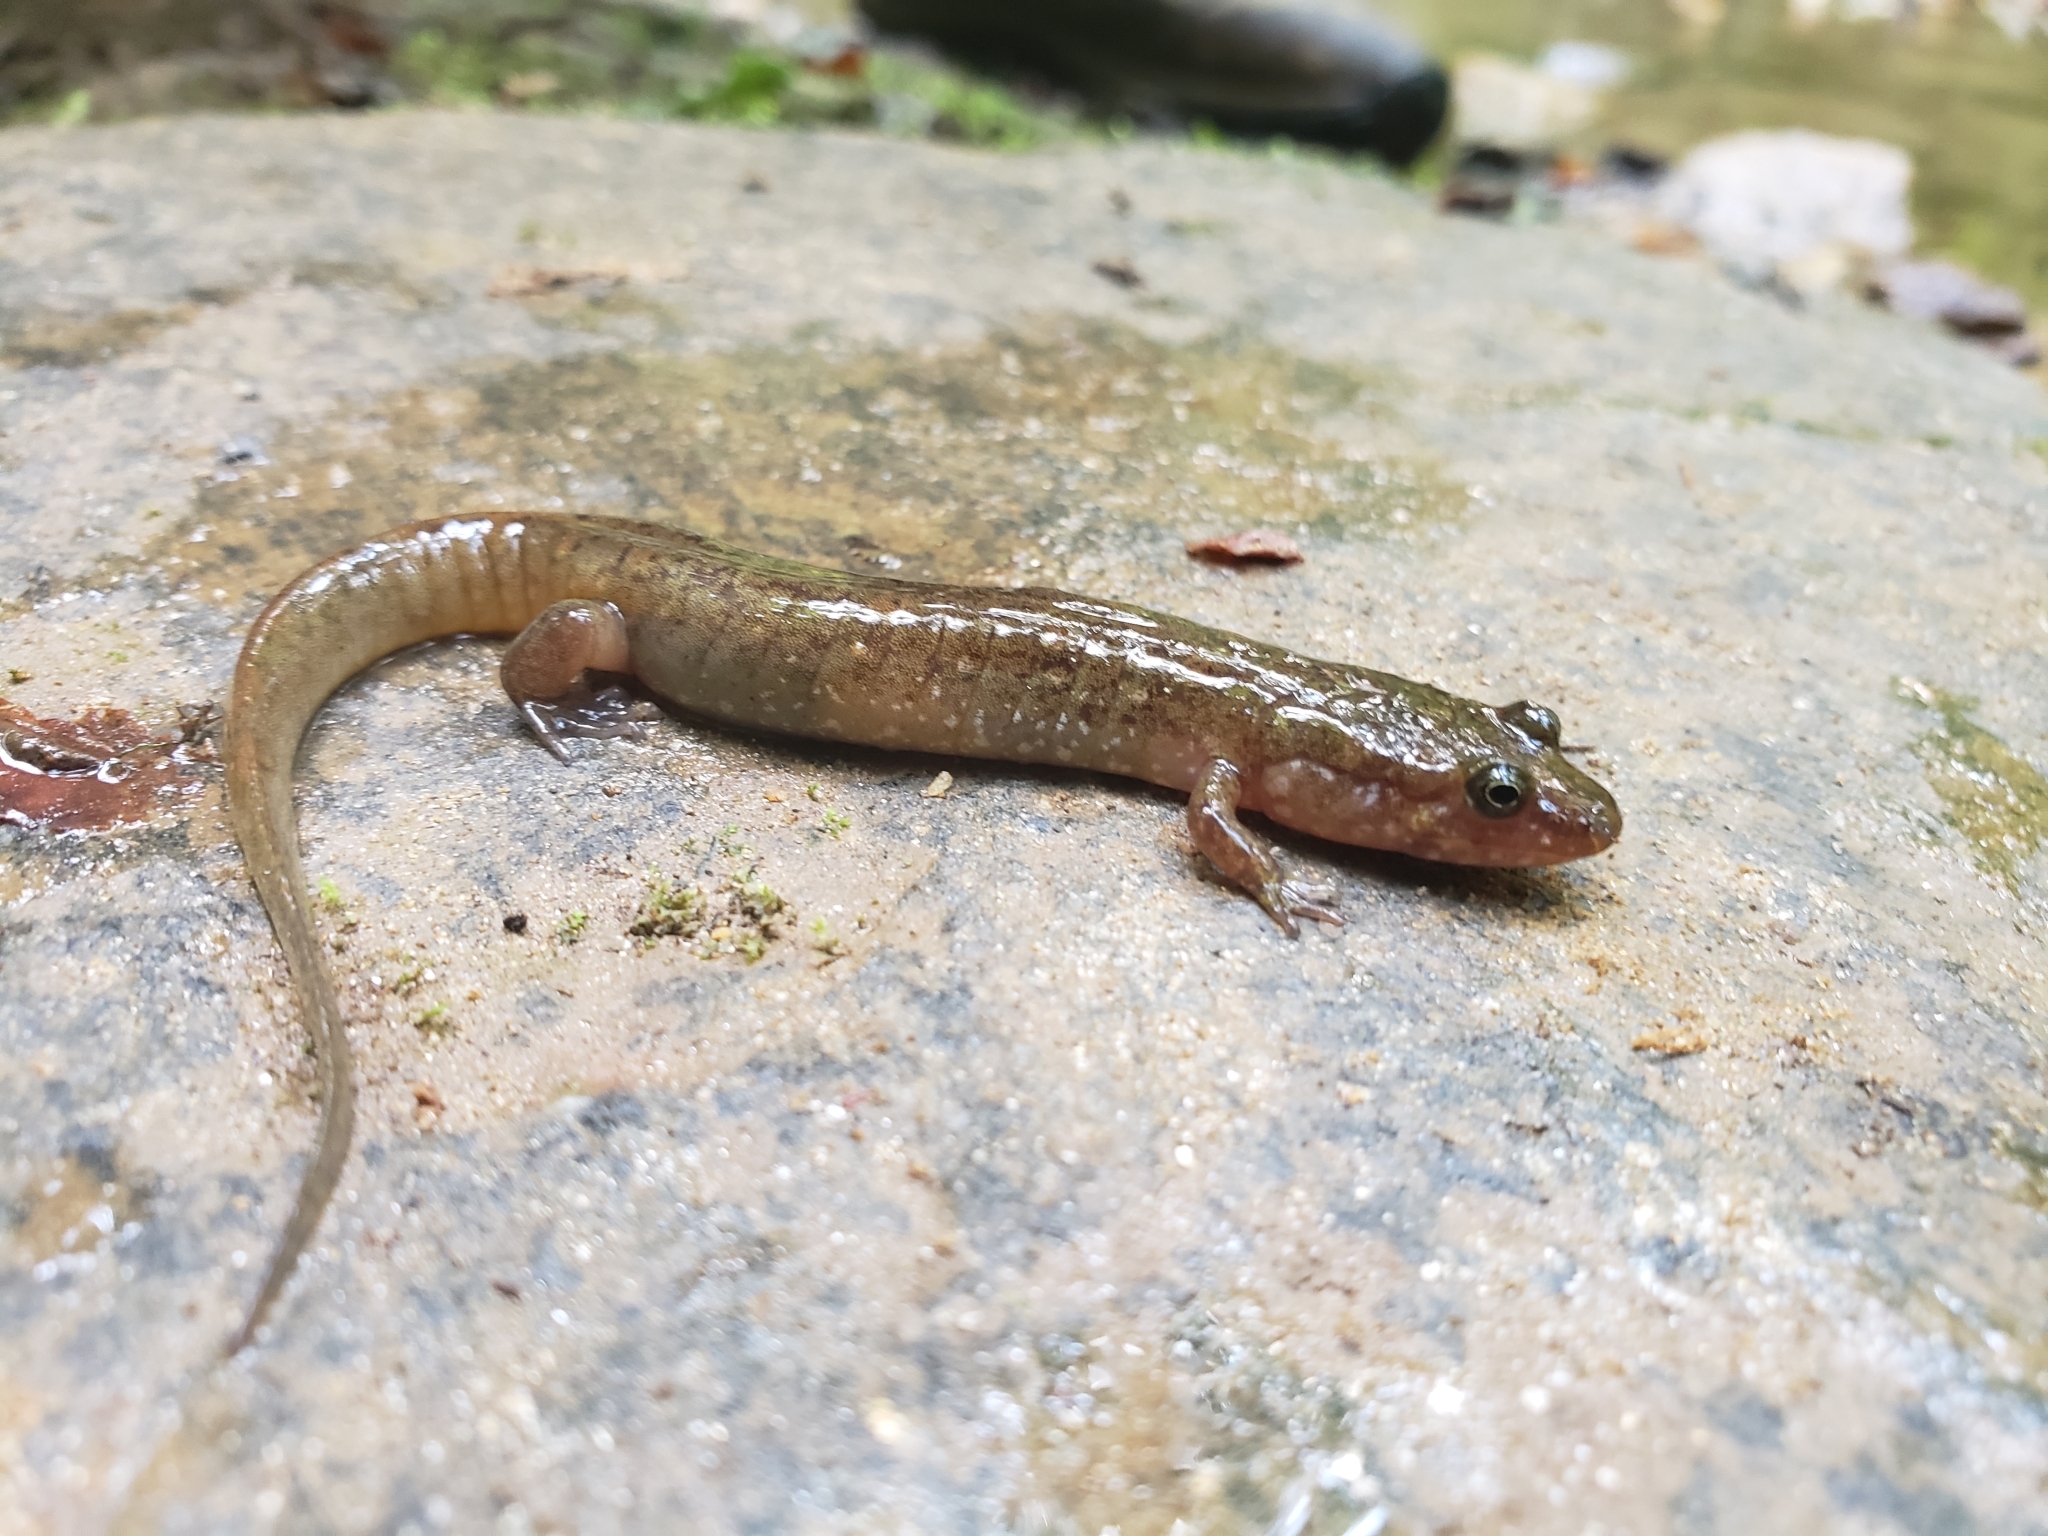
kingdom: Animalia
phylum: Chordata
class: Amphibia
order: Caudata
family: Plethodontidae
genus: Desmognathus
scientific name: Desmognathus monticola
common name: Seal salamander
